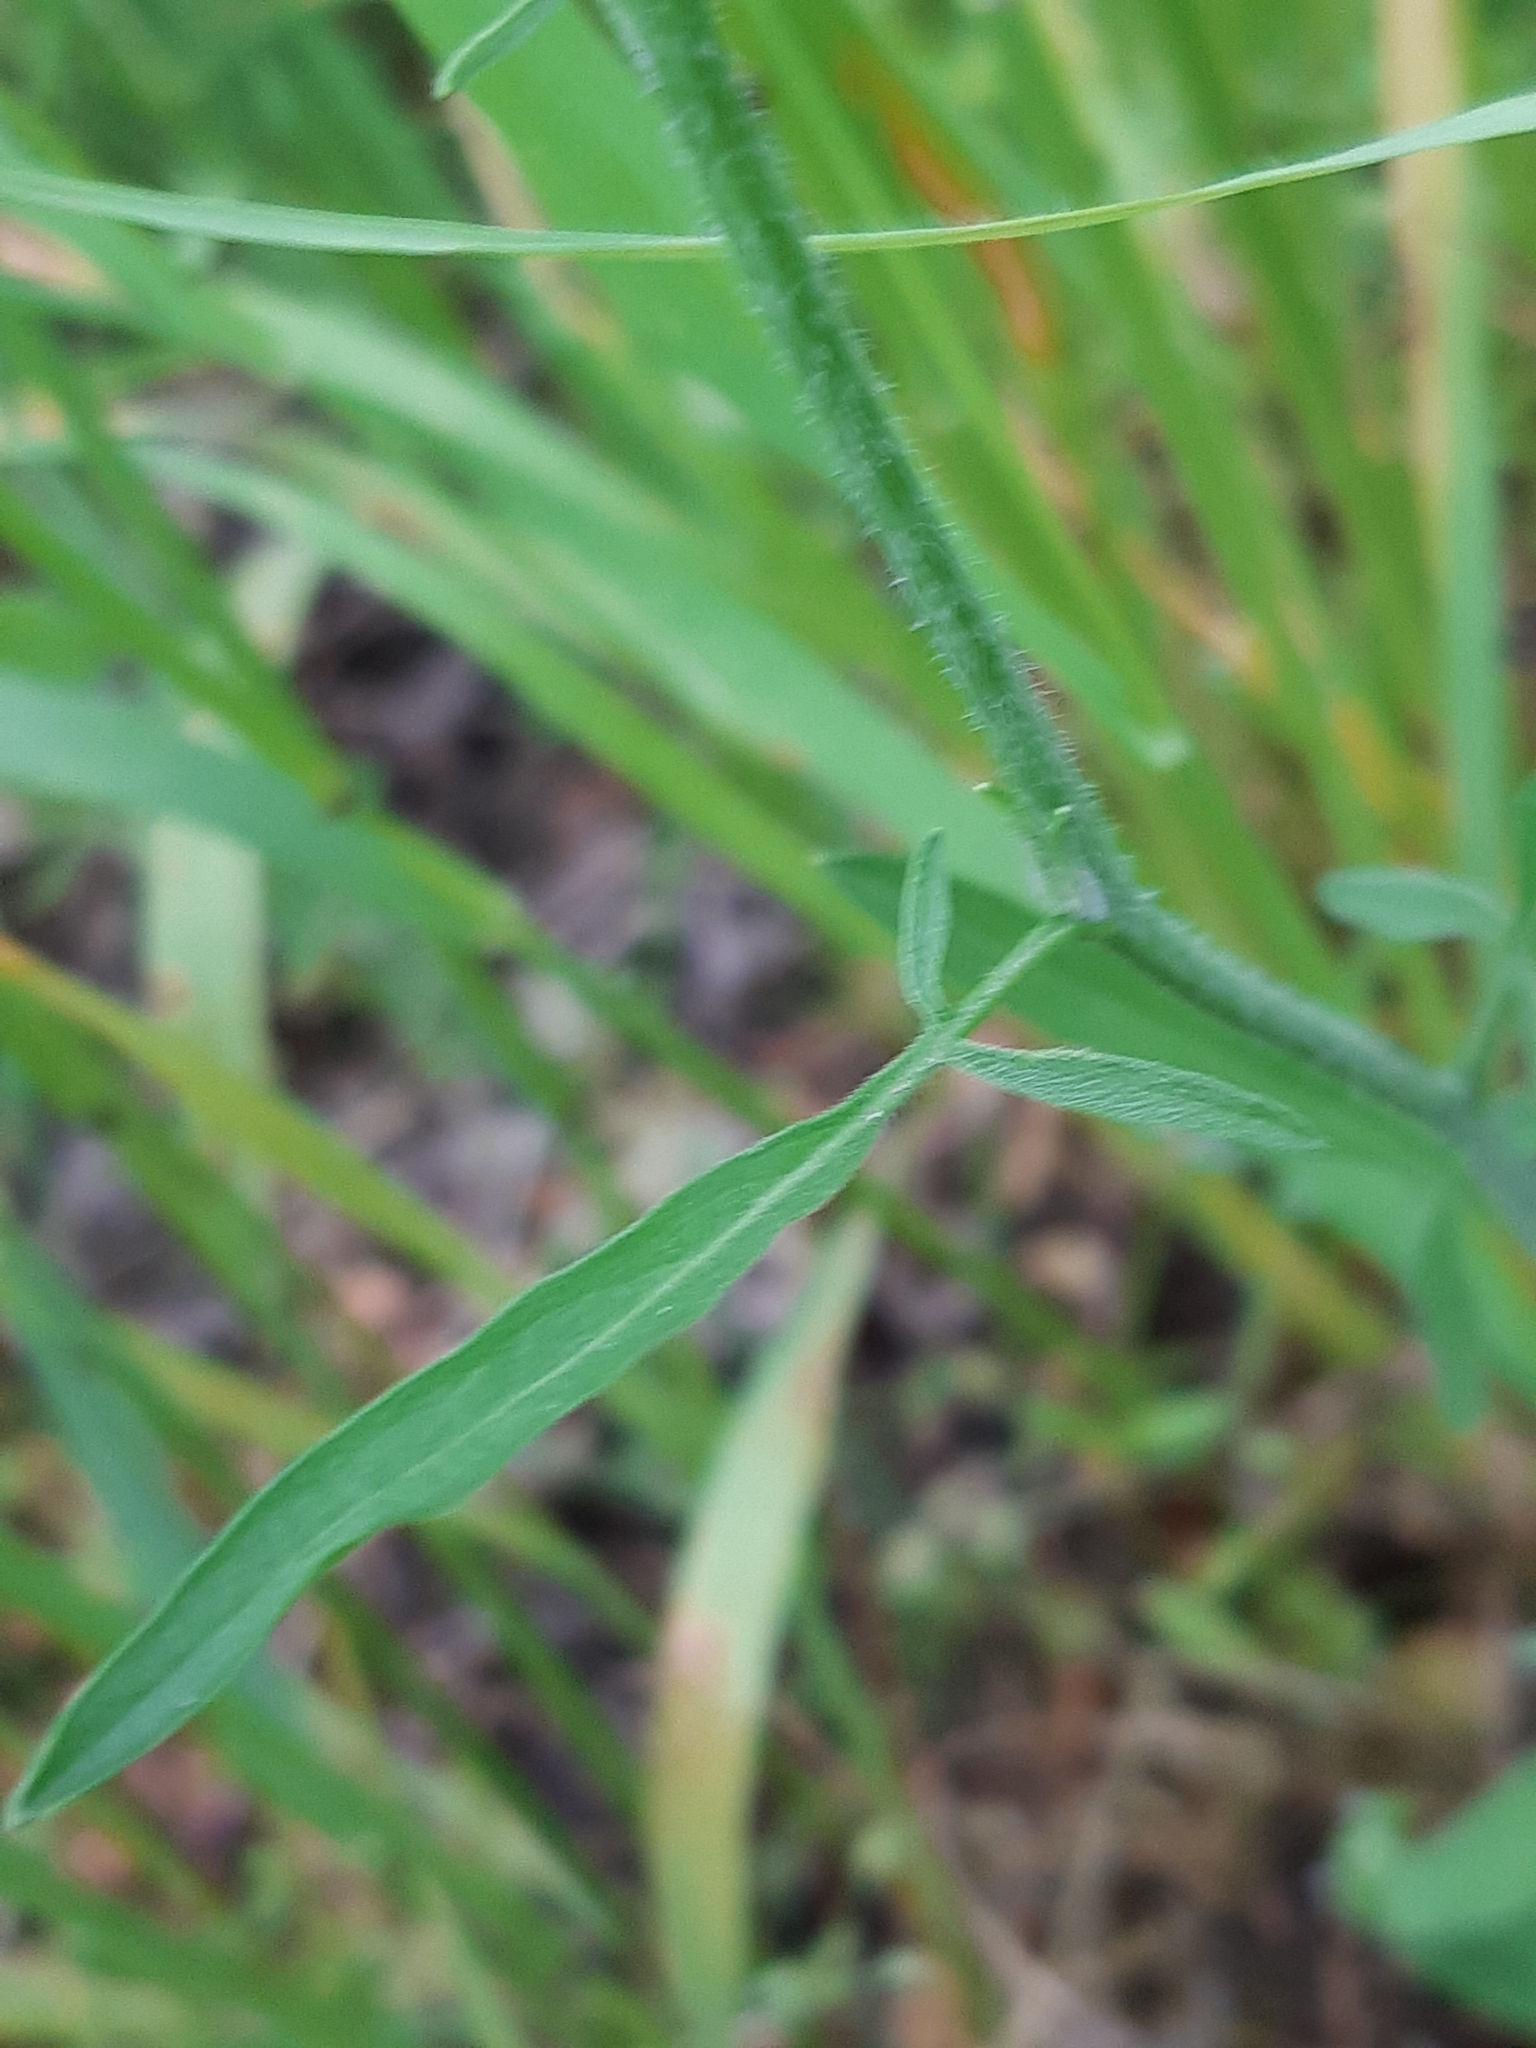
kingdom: Plantae
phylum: Tracheophyta
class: Magnoliopsida
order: Brassicales
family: Brassicaceae
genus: Sisymbrium
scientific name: Sisymbrium orientale
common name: Eastern rocket
